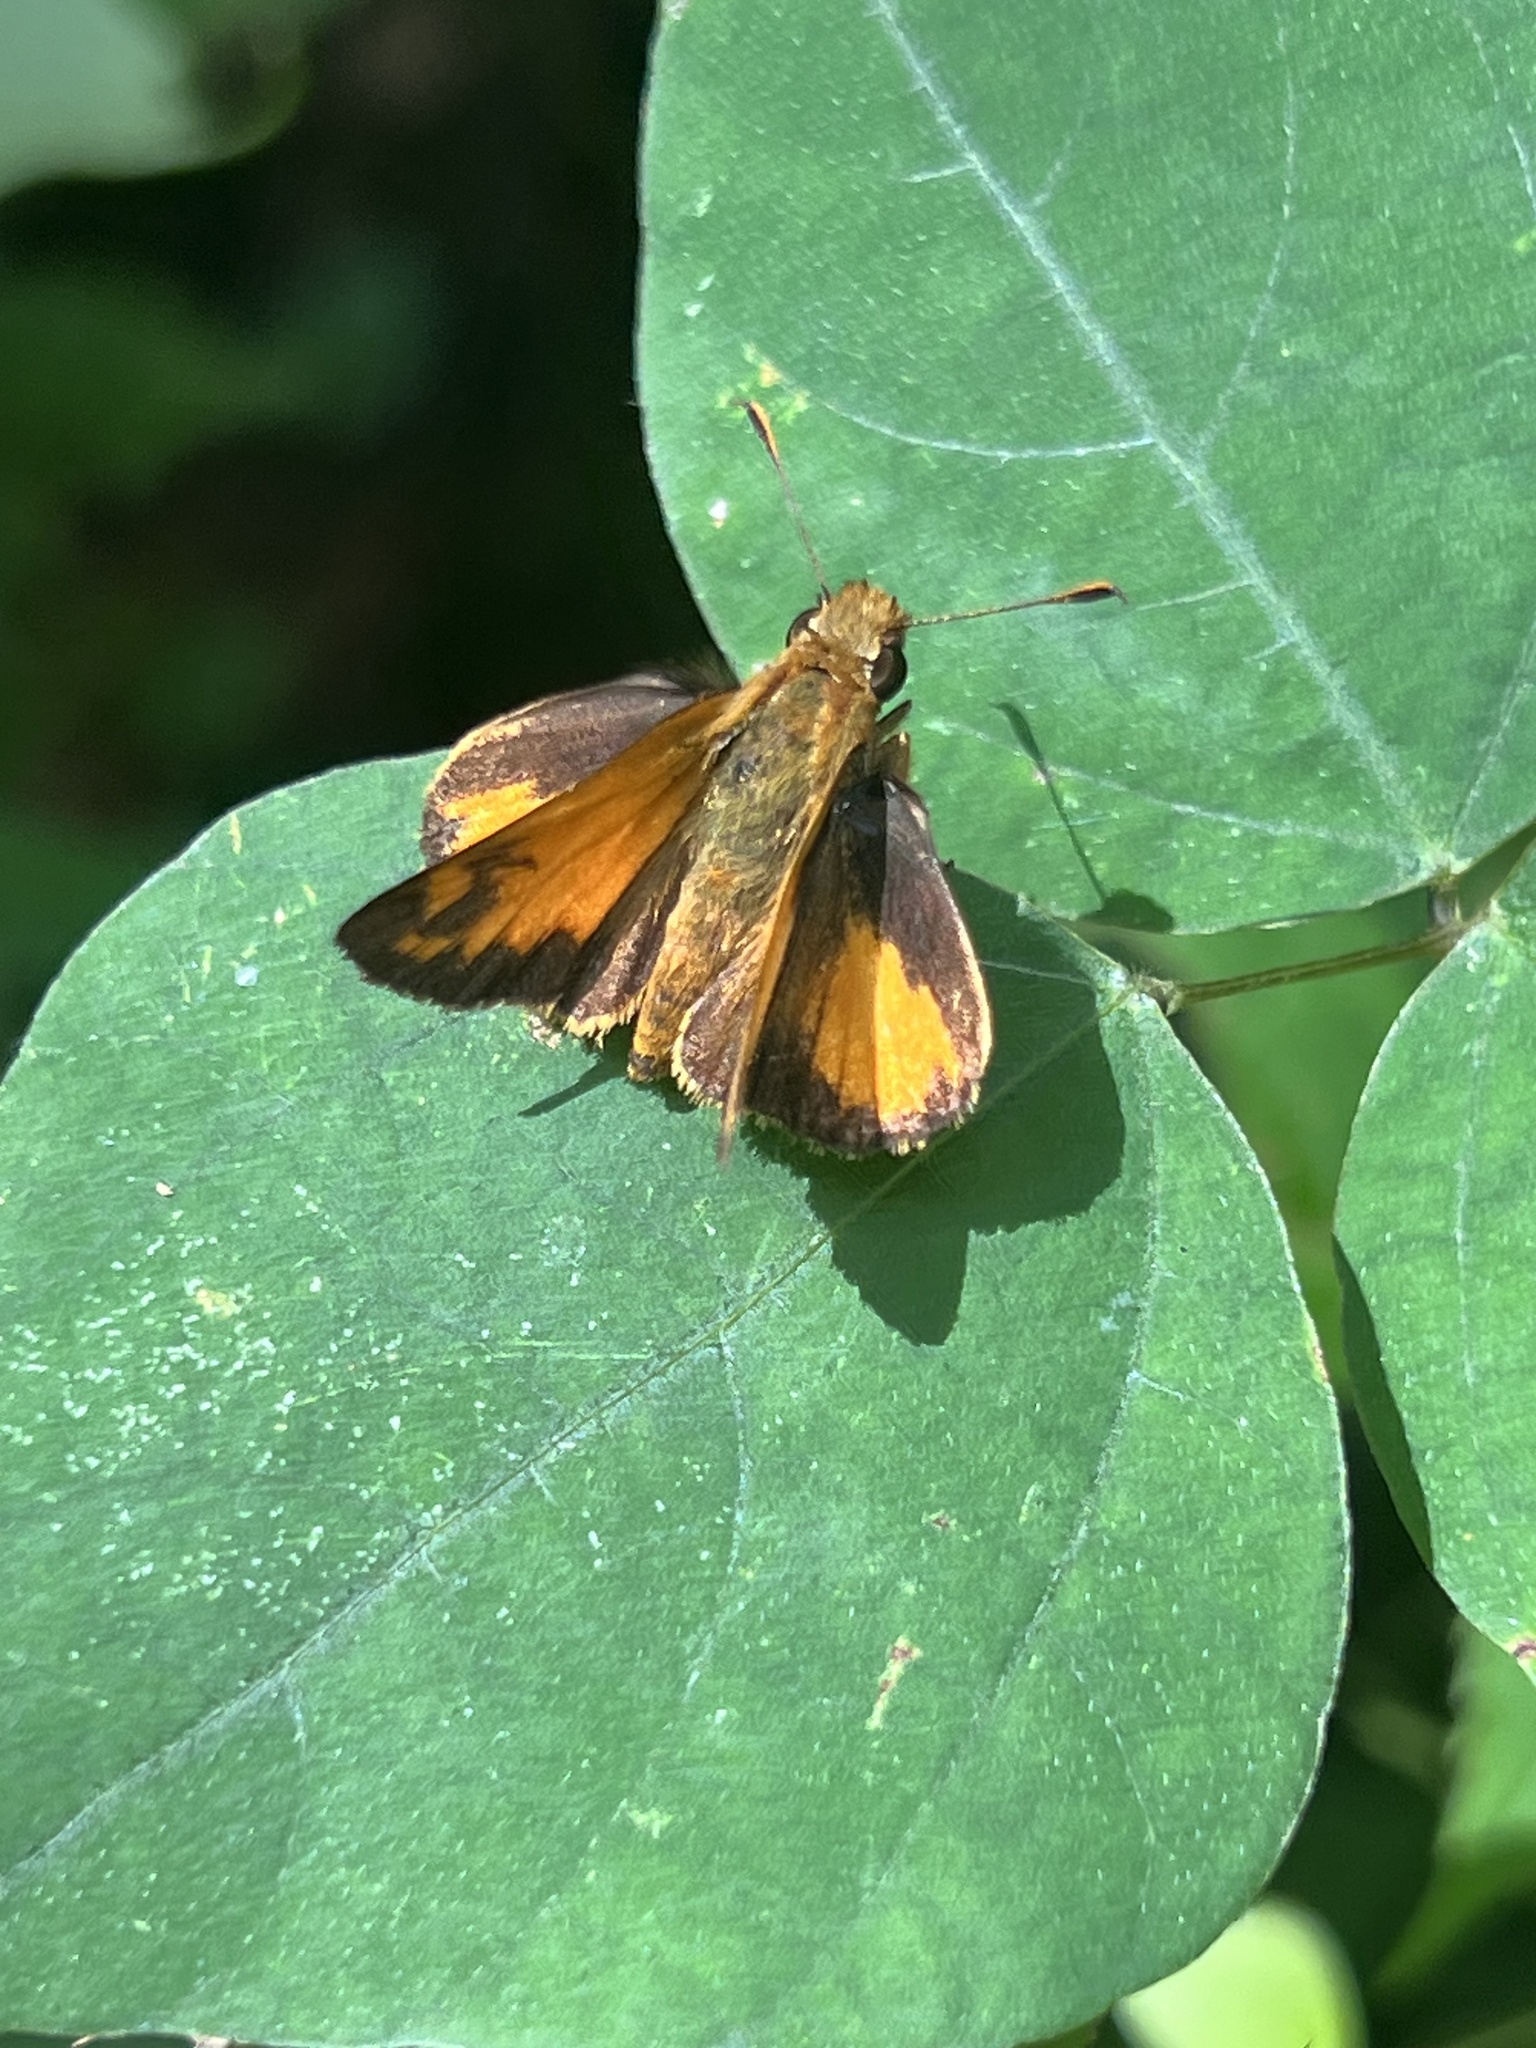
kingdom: Animalia
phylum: Arthropoda
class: Insecta
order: Lepidoptera
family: Hesperiidae
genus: Lon
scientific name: Lon zabulon
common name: Zabulon skipper
